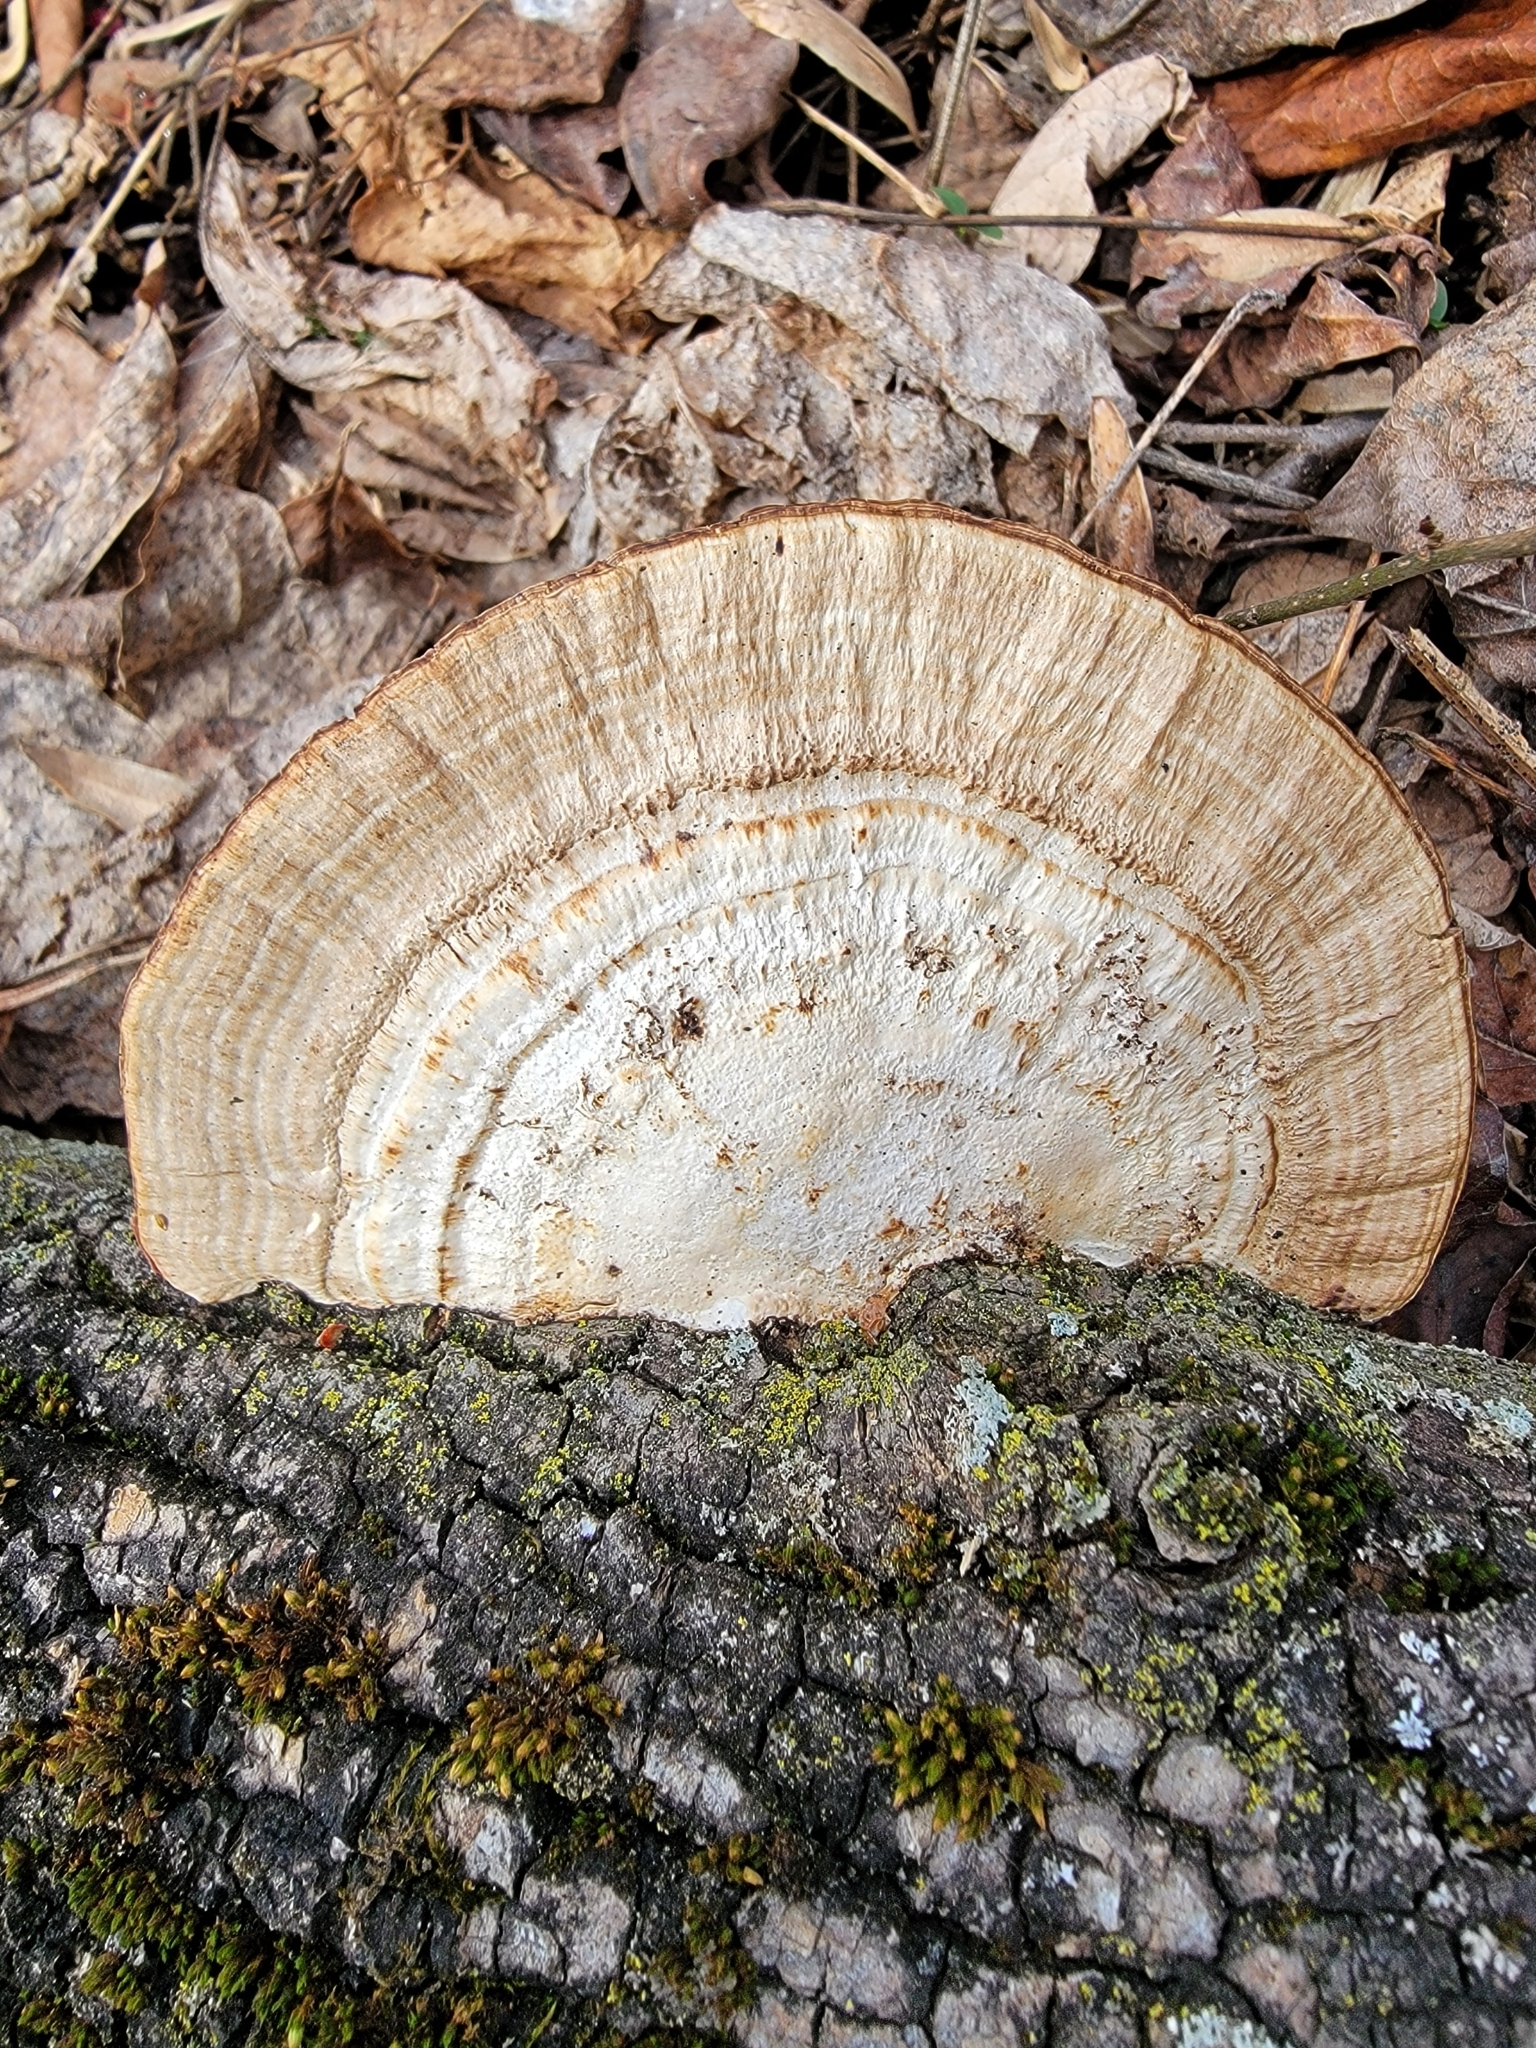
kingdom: Fungi
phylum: Basidiomycota
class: Agaricomycetes
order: Polyporales
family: Polyporaceae
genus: Daedaleopsis
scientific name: Daedaleopsis confragosa
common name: Blushing bracket
